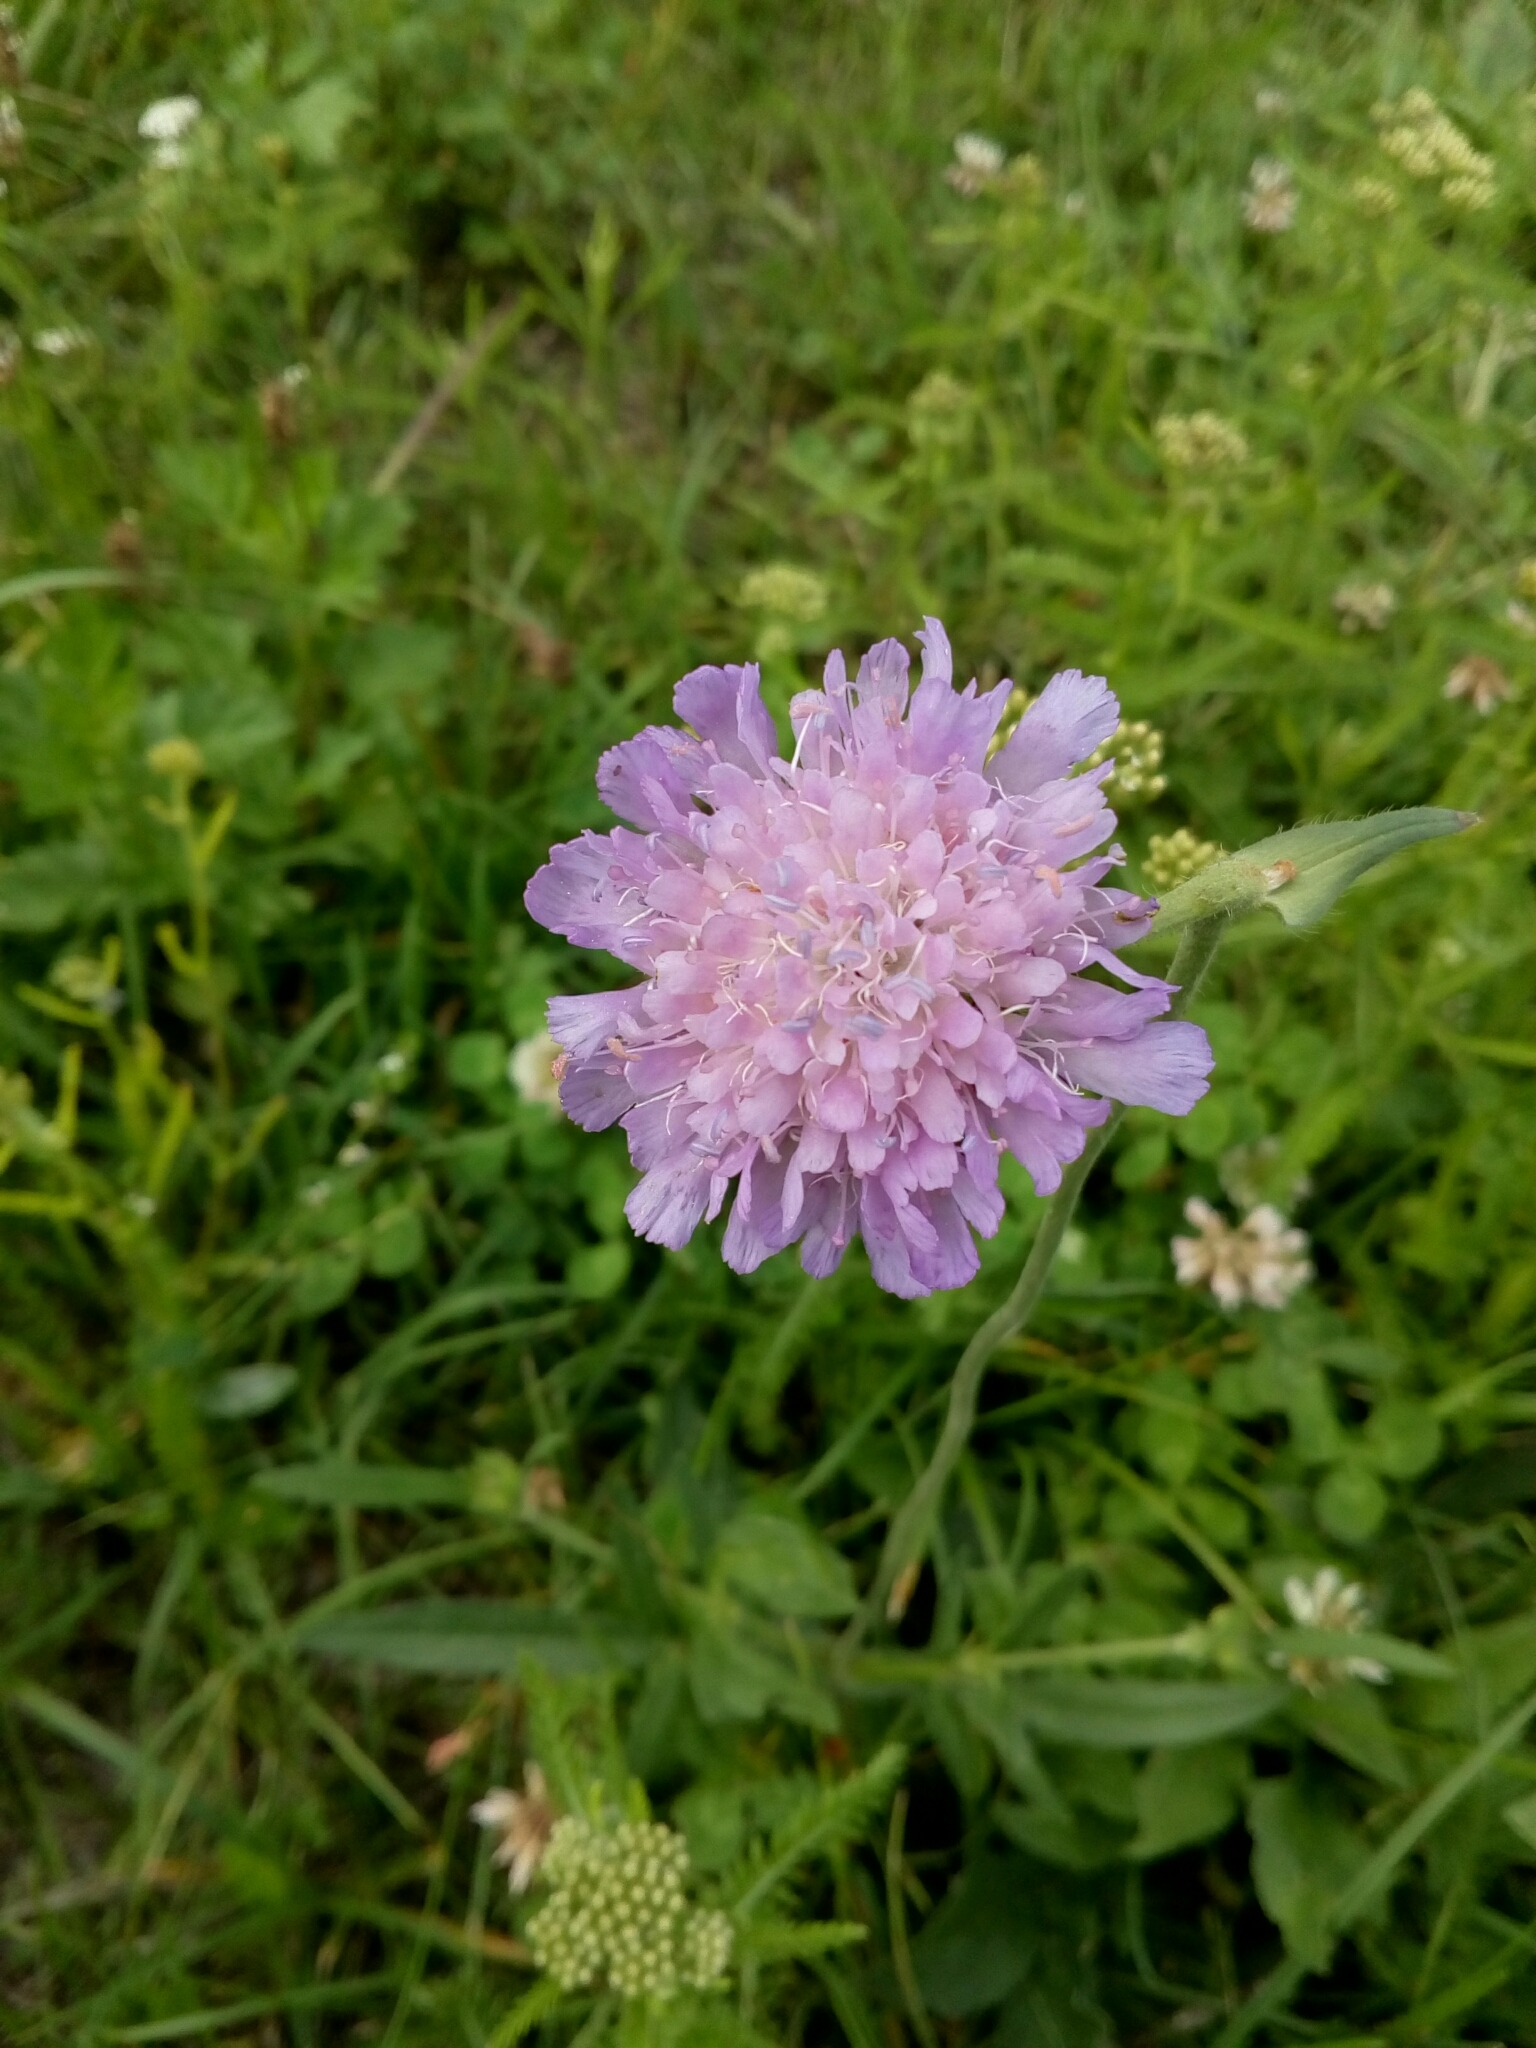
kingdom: Plantae
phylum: Tracheophyta
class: Magnoliopsida
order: Dipsacales
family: Caprifoliaceae
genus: Knautia
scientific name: Knautia arvensis
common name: Field scabiosa
